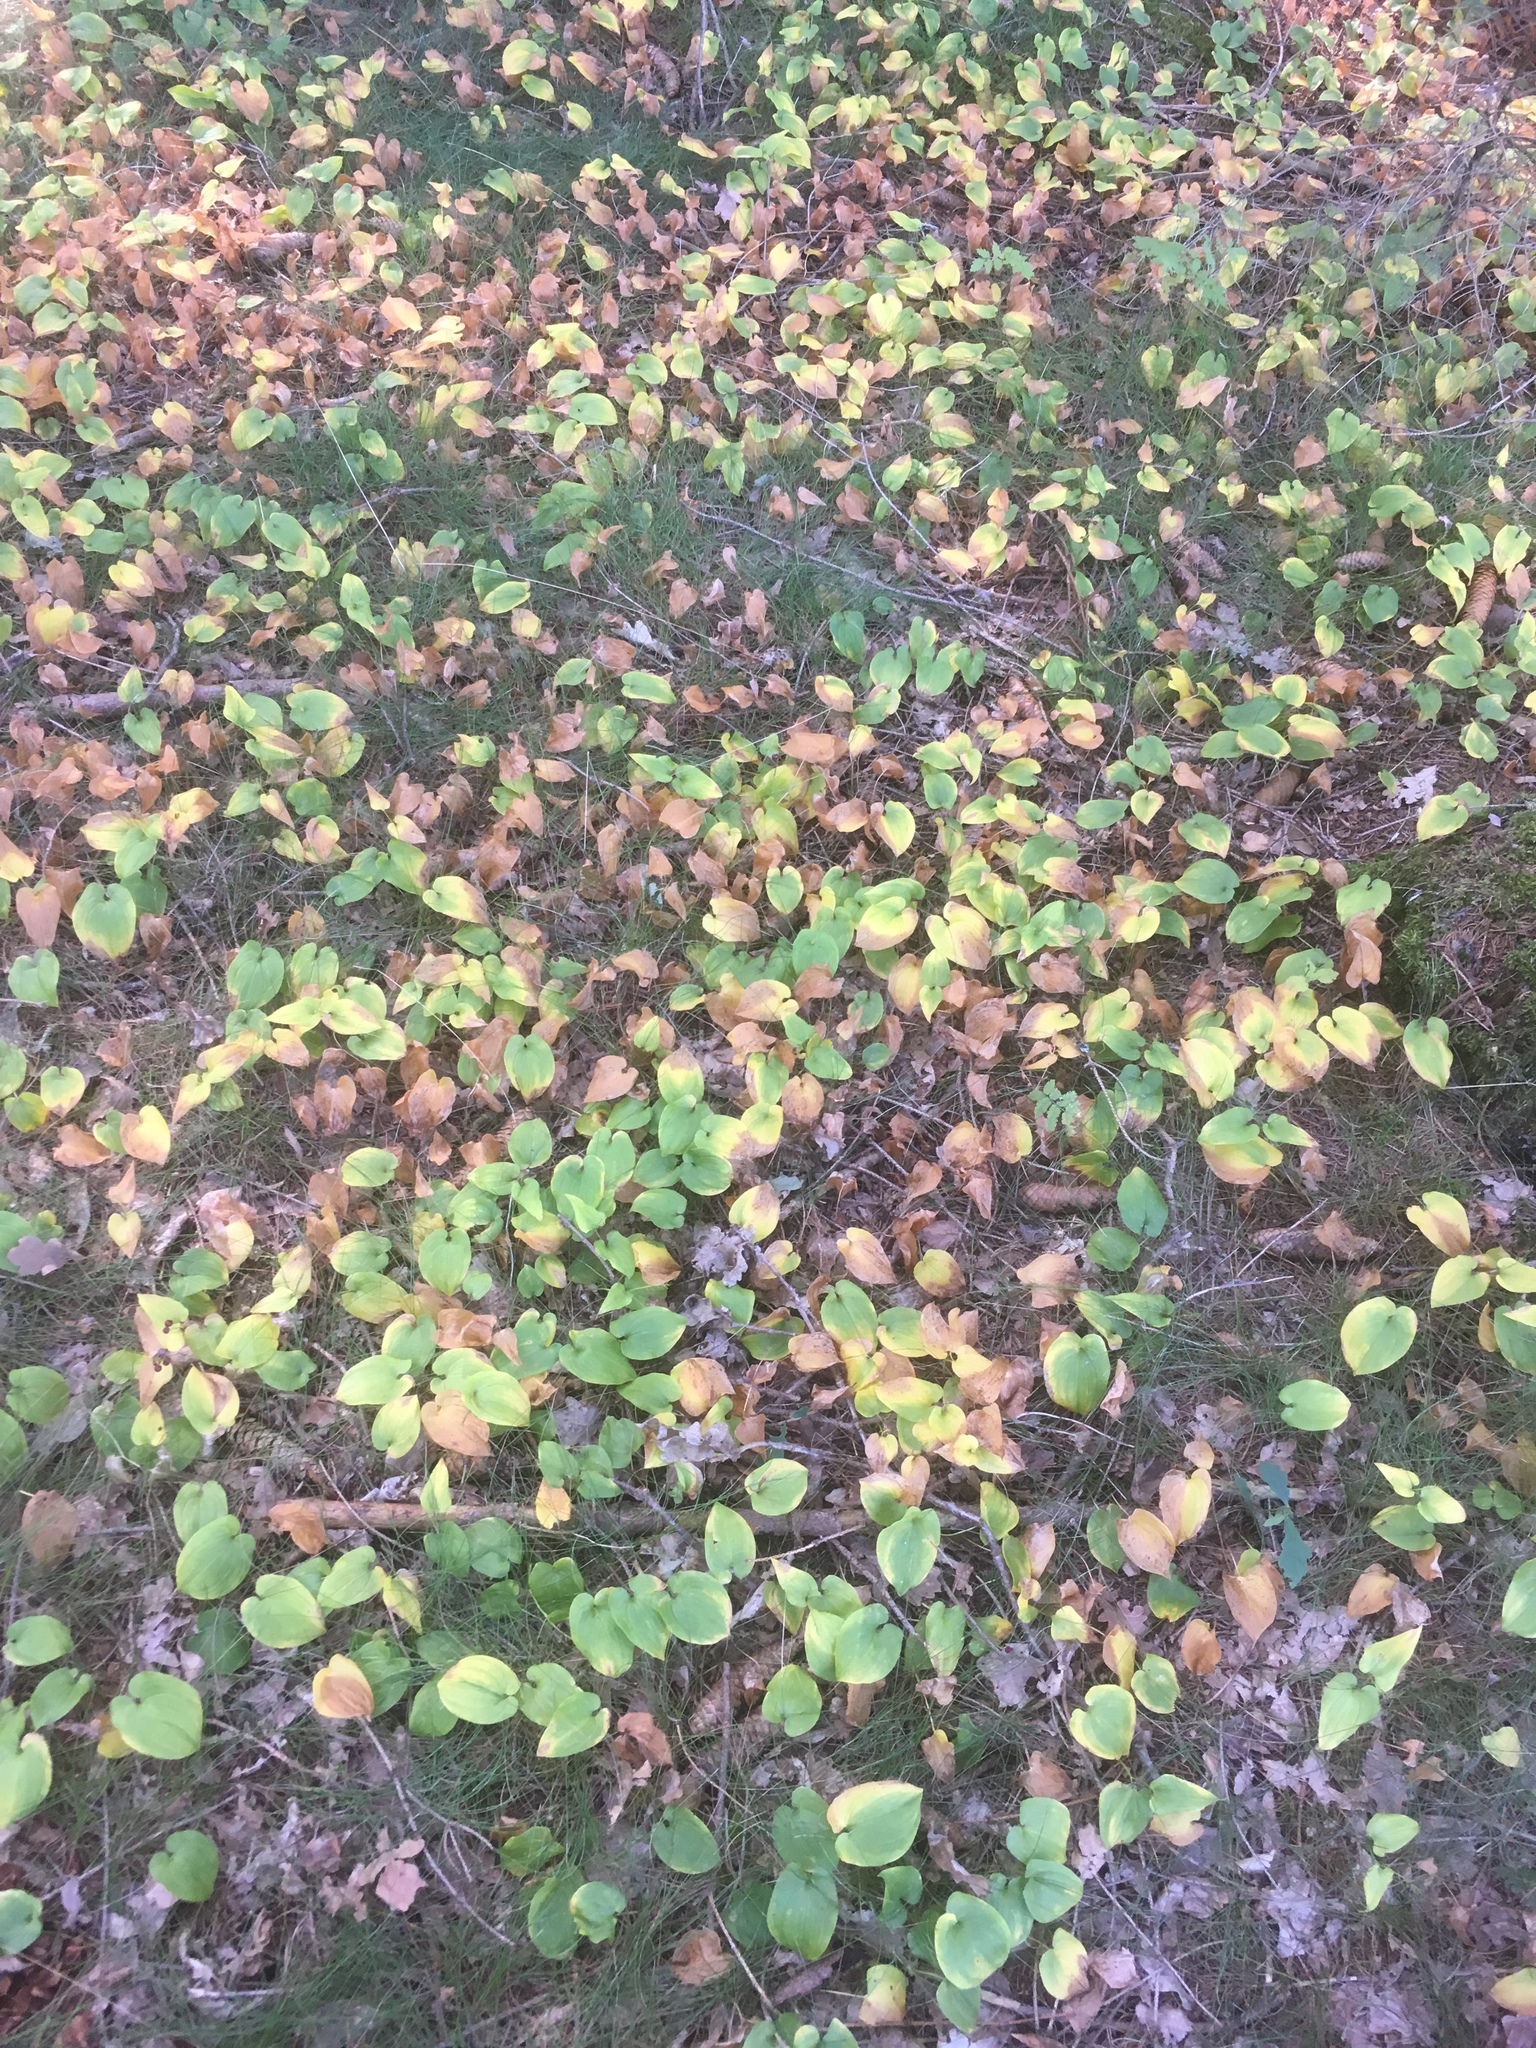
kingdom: Plantae
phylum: Tracheophyta
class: Liliopsida
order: Asparagales
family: Asparagaceae
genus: Maianthemum
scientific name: Maianthemum bifolium
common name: May lily
